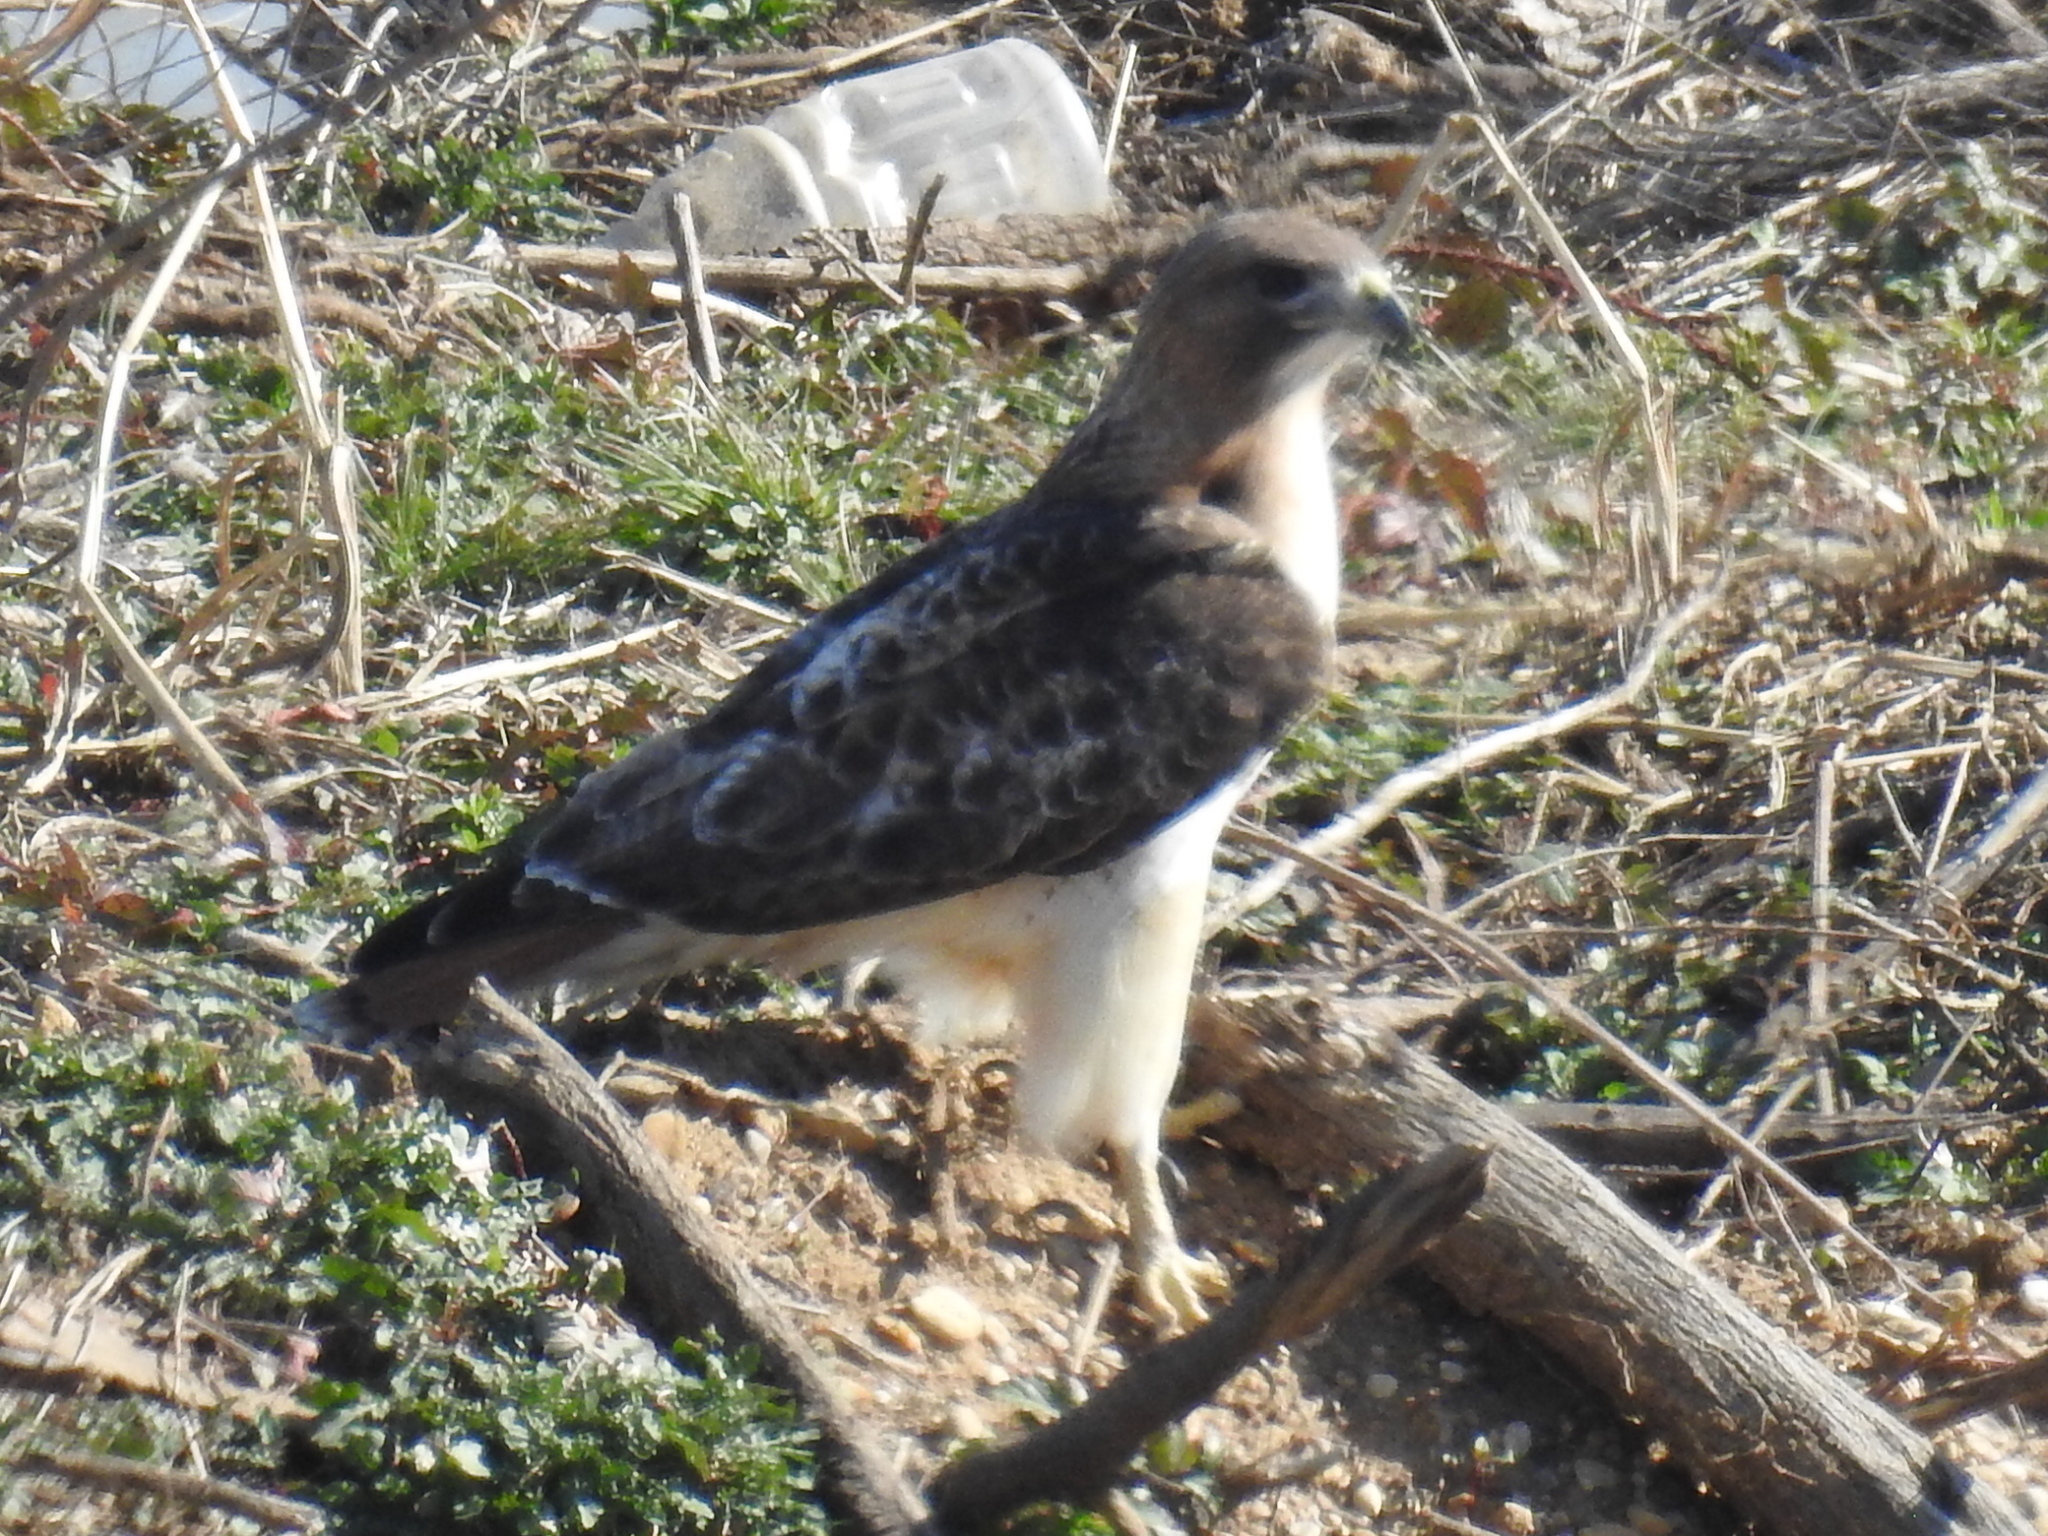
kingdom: Animalia
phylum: Chordata
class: Aves
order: Accipitriformes
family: Accipitridae
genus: Buteo
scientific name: Buteo jamaicensis
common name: Red-tailed hawk
